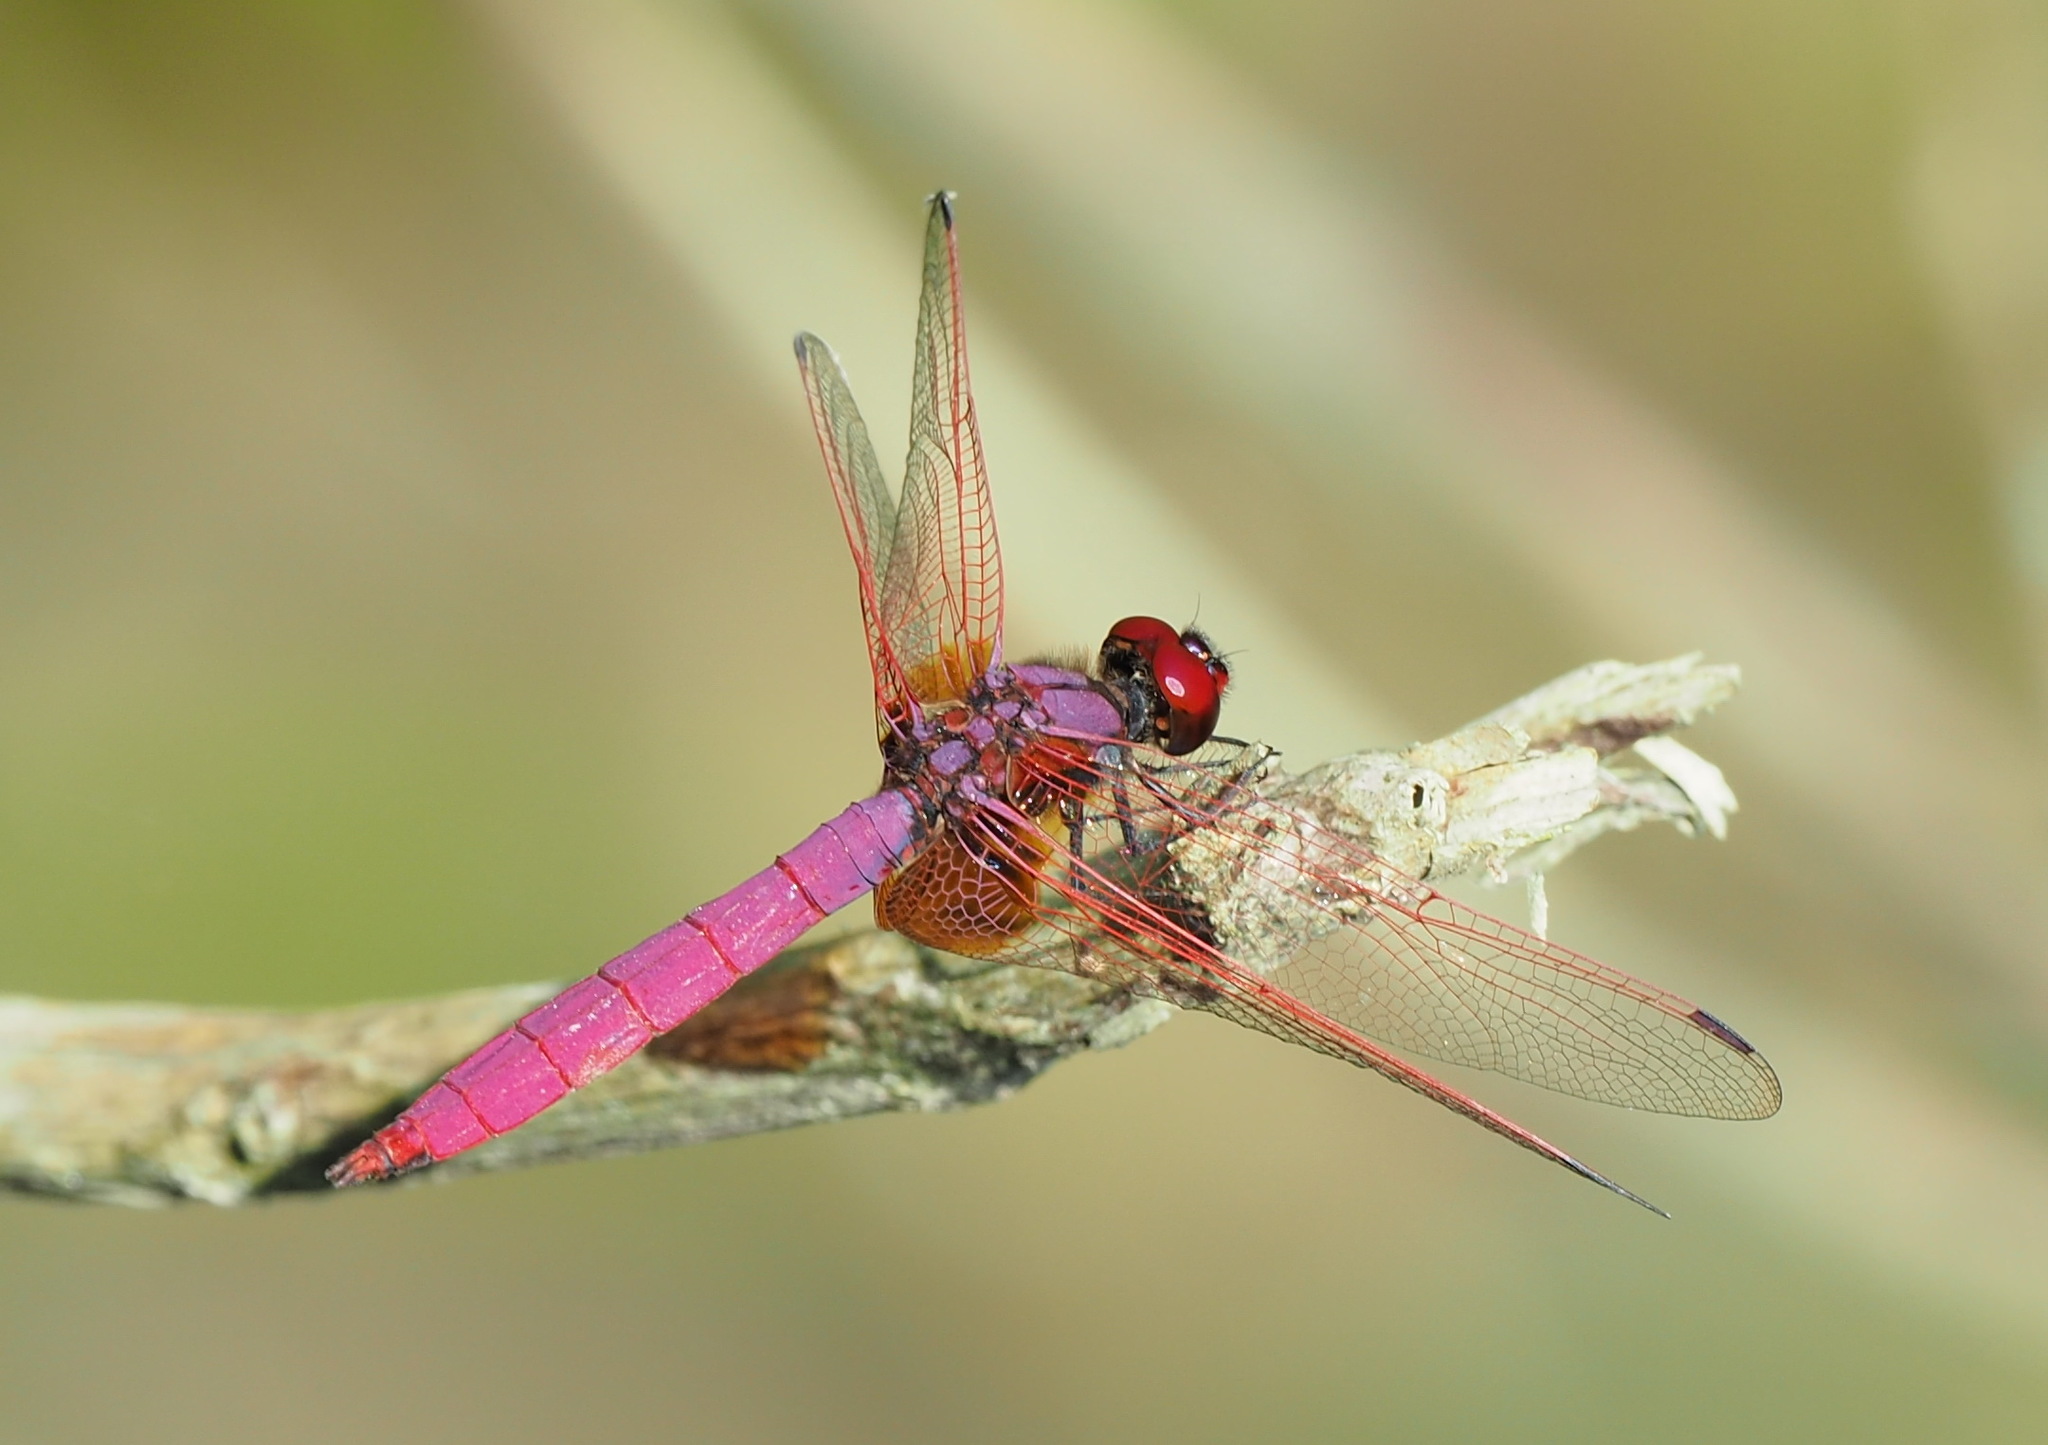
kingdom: Animalia
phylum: Arthropoda
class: Insecta
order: Odonata
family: Libellulidae
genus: Trithemis
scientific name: Trithemis aurora
